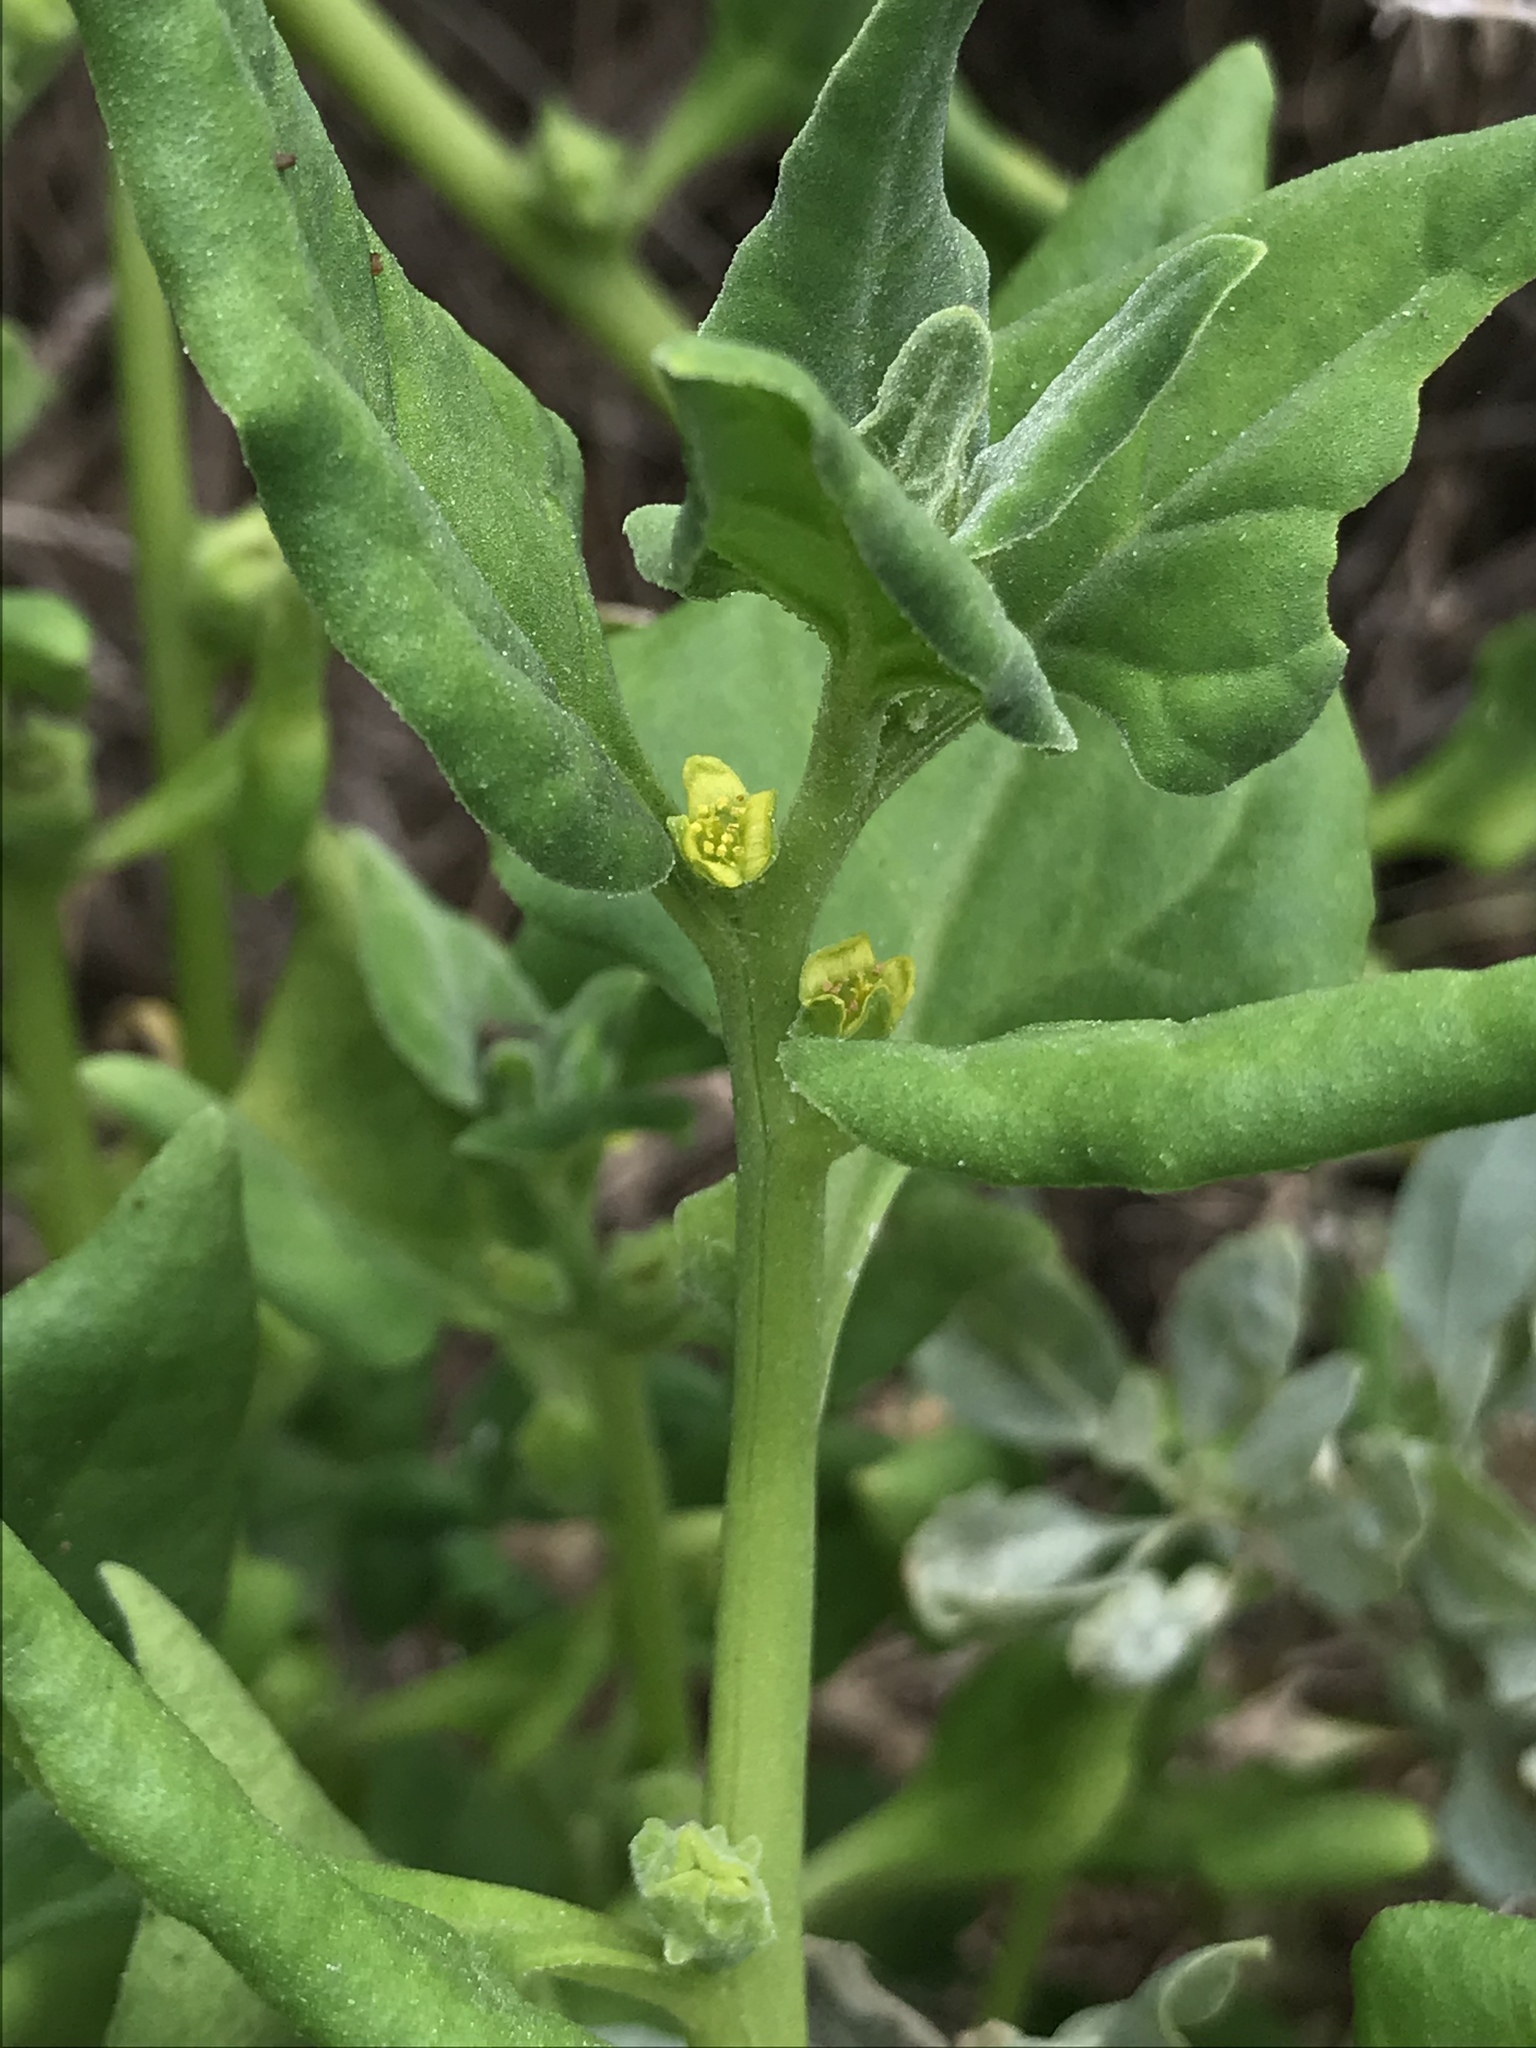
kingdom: Plantae
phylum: Tracheophyta
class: Magnoliopsida
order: Caryophyllales
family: Aizoaceae
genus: Tetragonia
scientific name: Tetragonia tetragonoides
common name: New zealand-spinach
